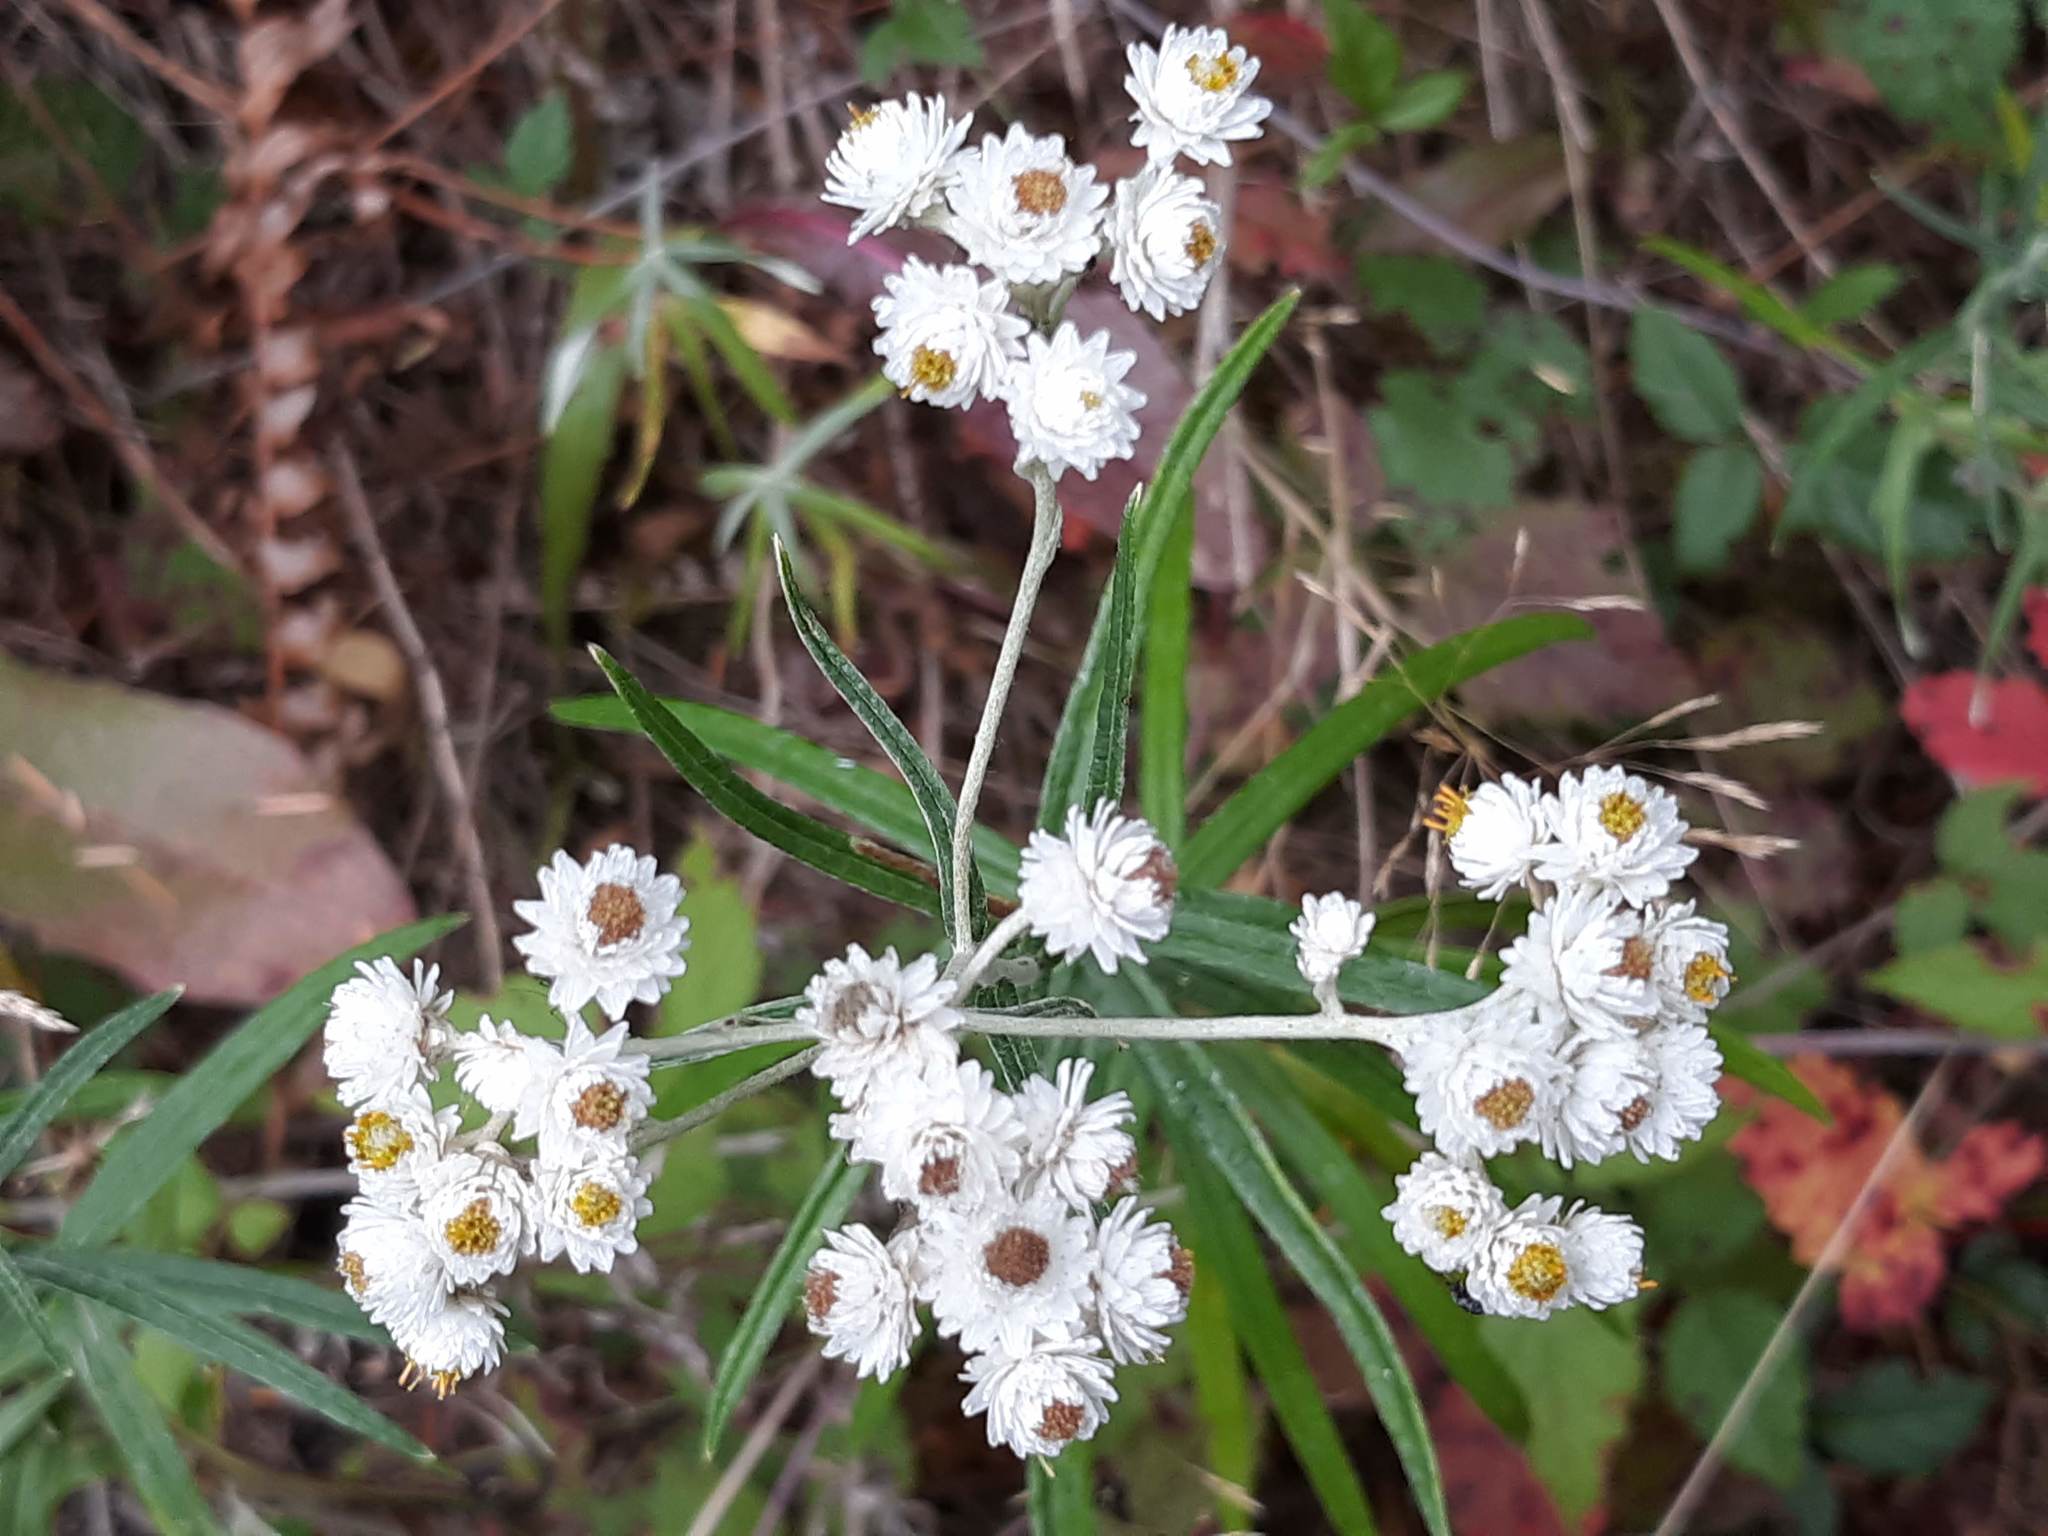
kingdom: Plantae
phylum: Tracheophyta
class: Magnoliopsida
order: Asterales
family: Asteraceae
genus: Anaphalis
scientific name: Anaphalis margaritacea
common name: Pearly everlasting
